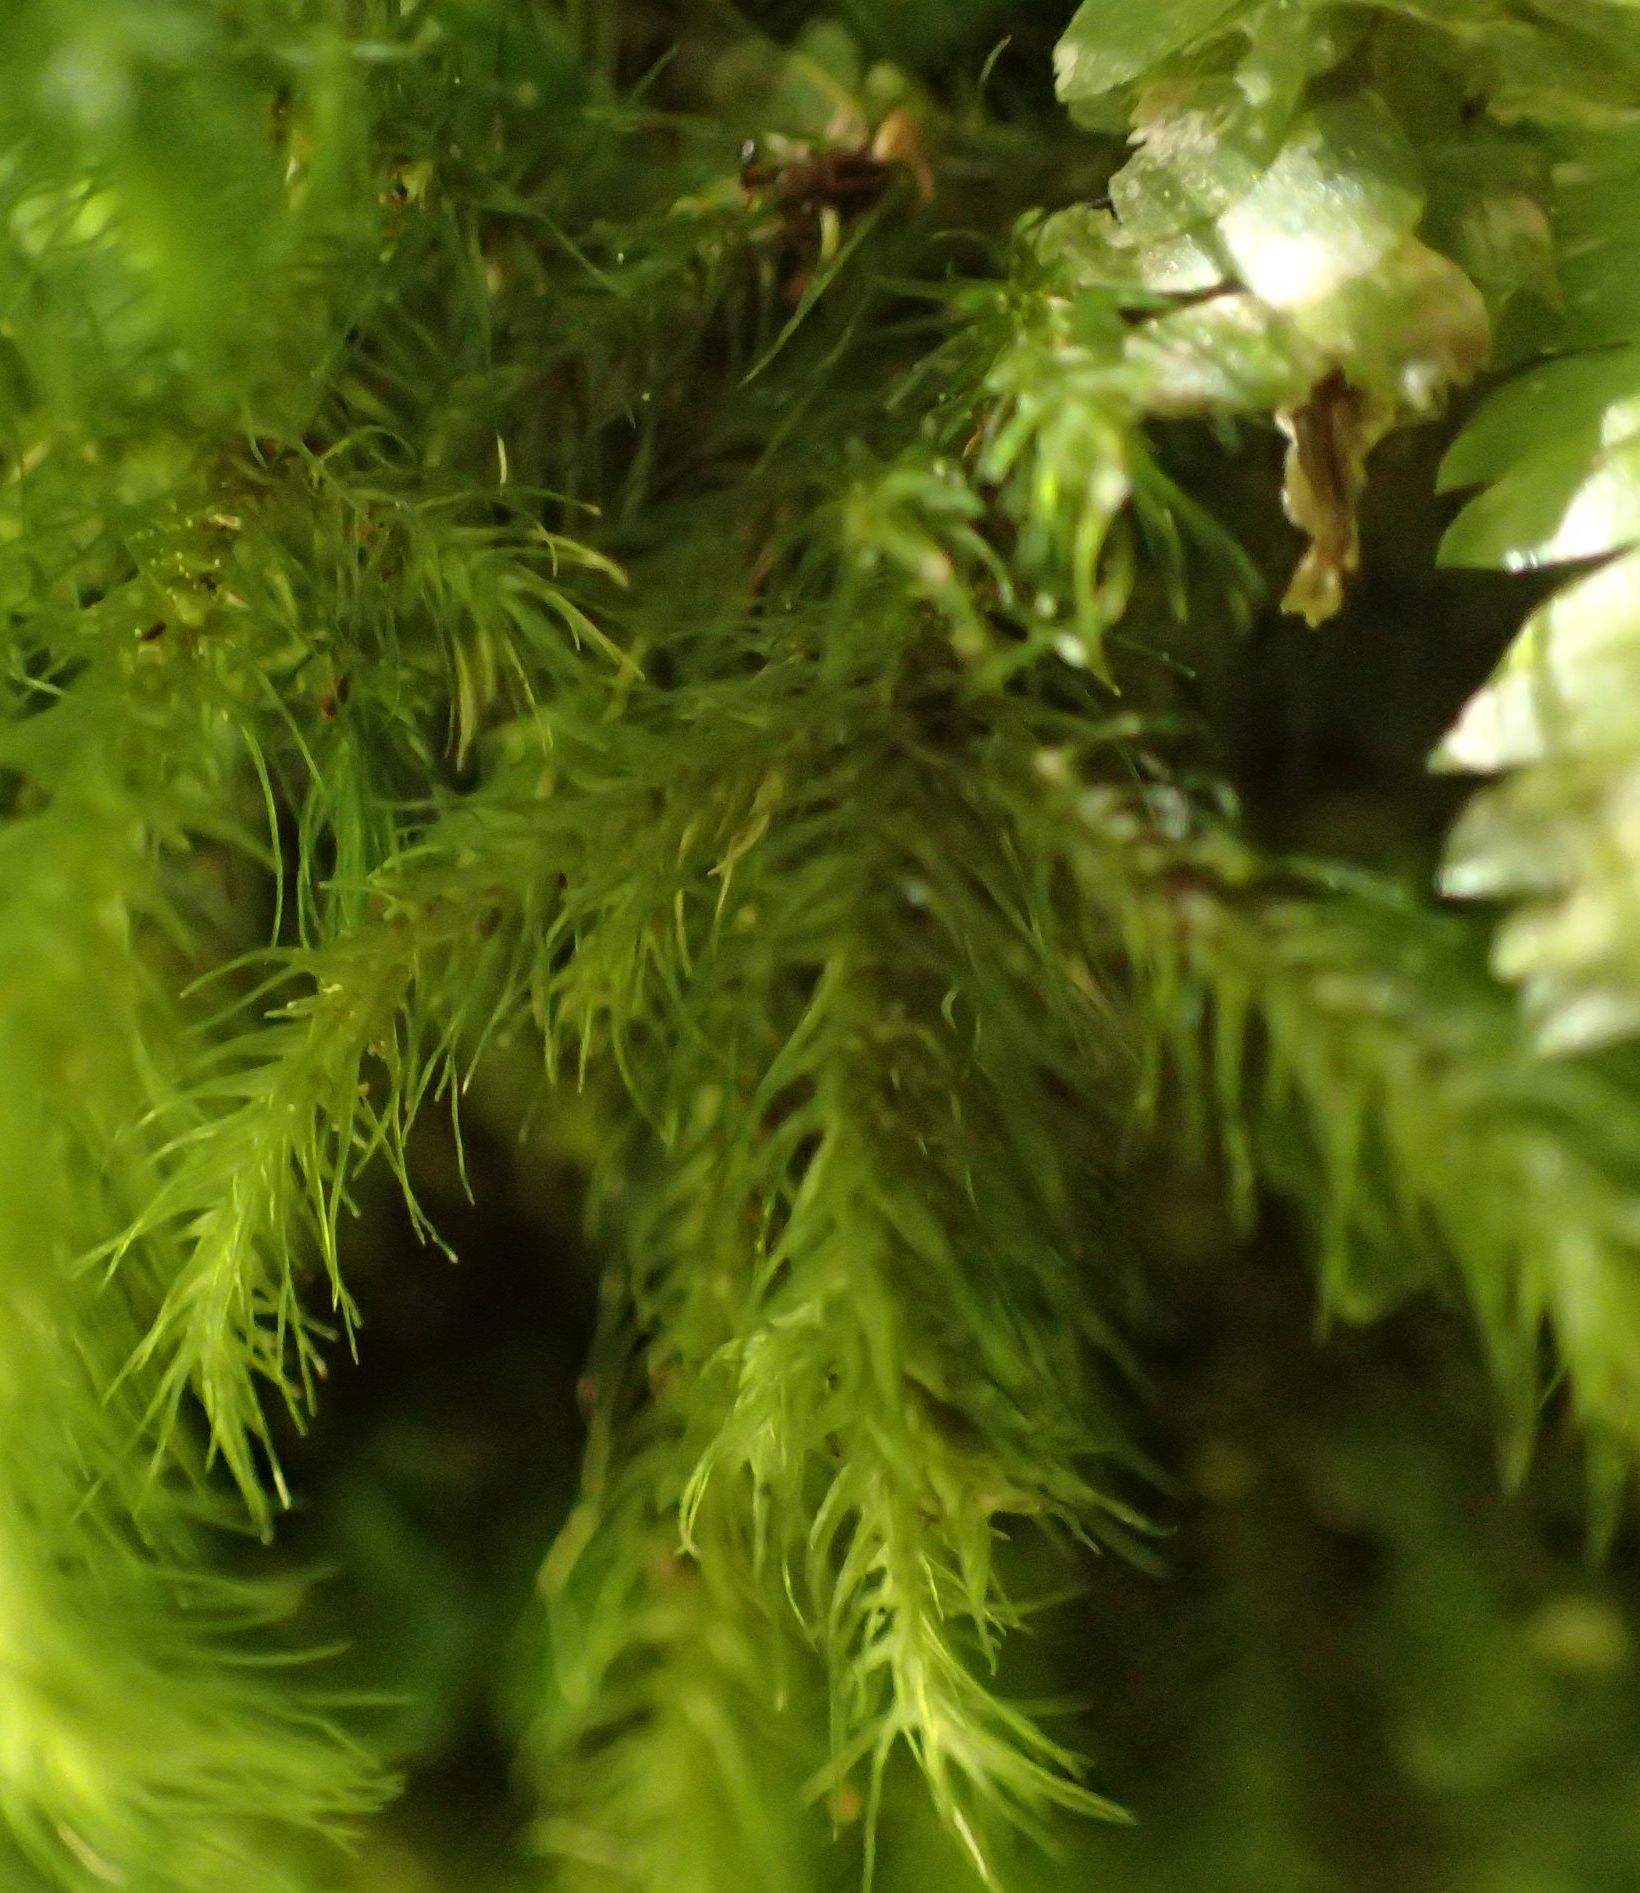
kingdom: Plantae
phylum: Bryophyta
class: Bryopsida
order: Hypnales
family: Neckeraceae
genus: Echinodiopsis
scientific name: Echinodiopsis hispida
